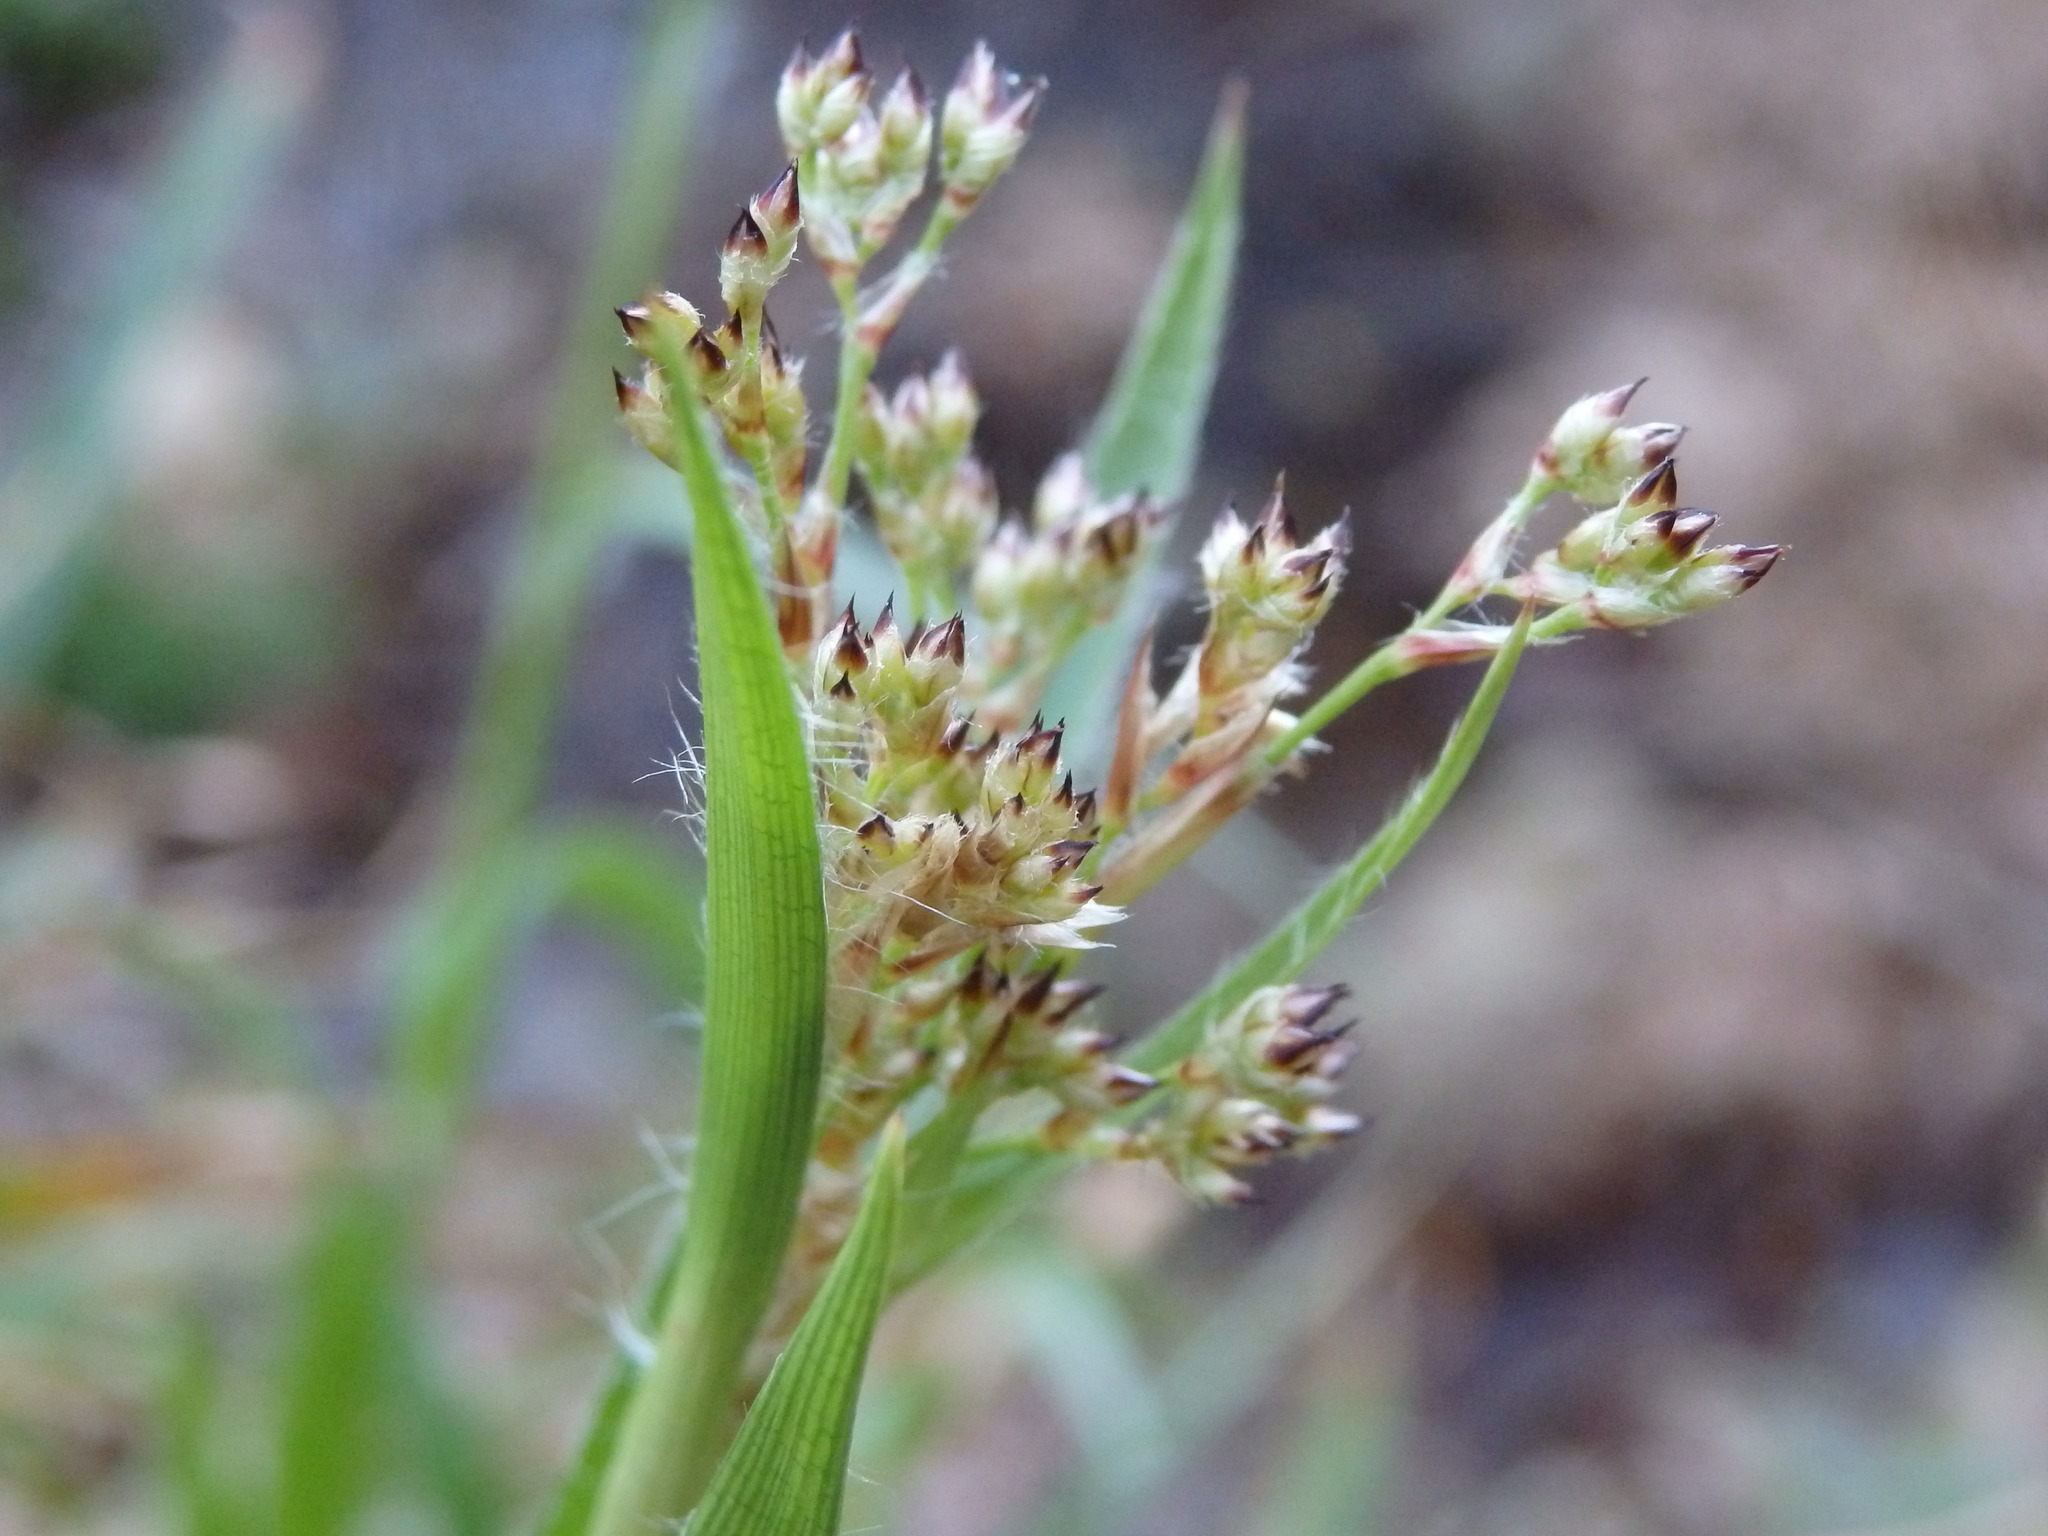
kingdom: Plantae
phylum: Tracheophyta
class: Liliopsida
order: Poales
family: Juncaceae
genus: Luzula
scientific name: Luzula sylvatica
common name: Great wood-rush
